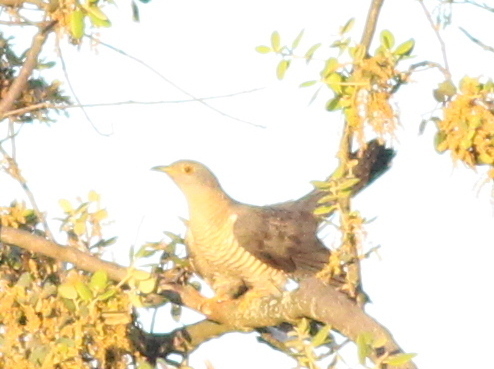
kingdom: Animalia
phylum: Chordata
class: Aves
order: Cuculiformes
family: Cuculidae
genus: Cuculus
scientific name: Cuculus canorus
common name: Common cuckoo
